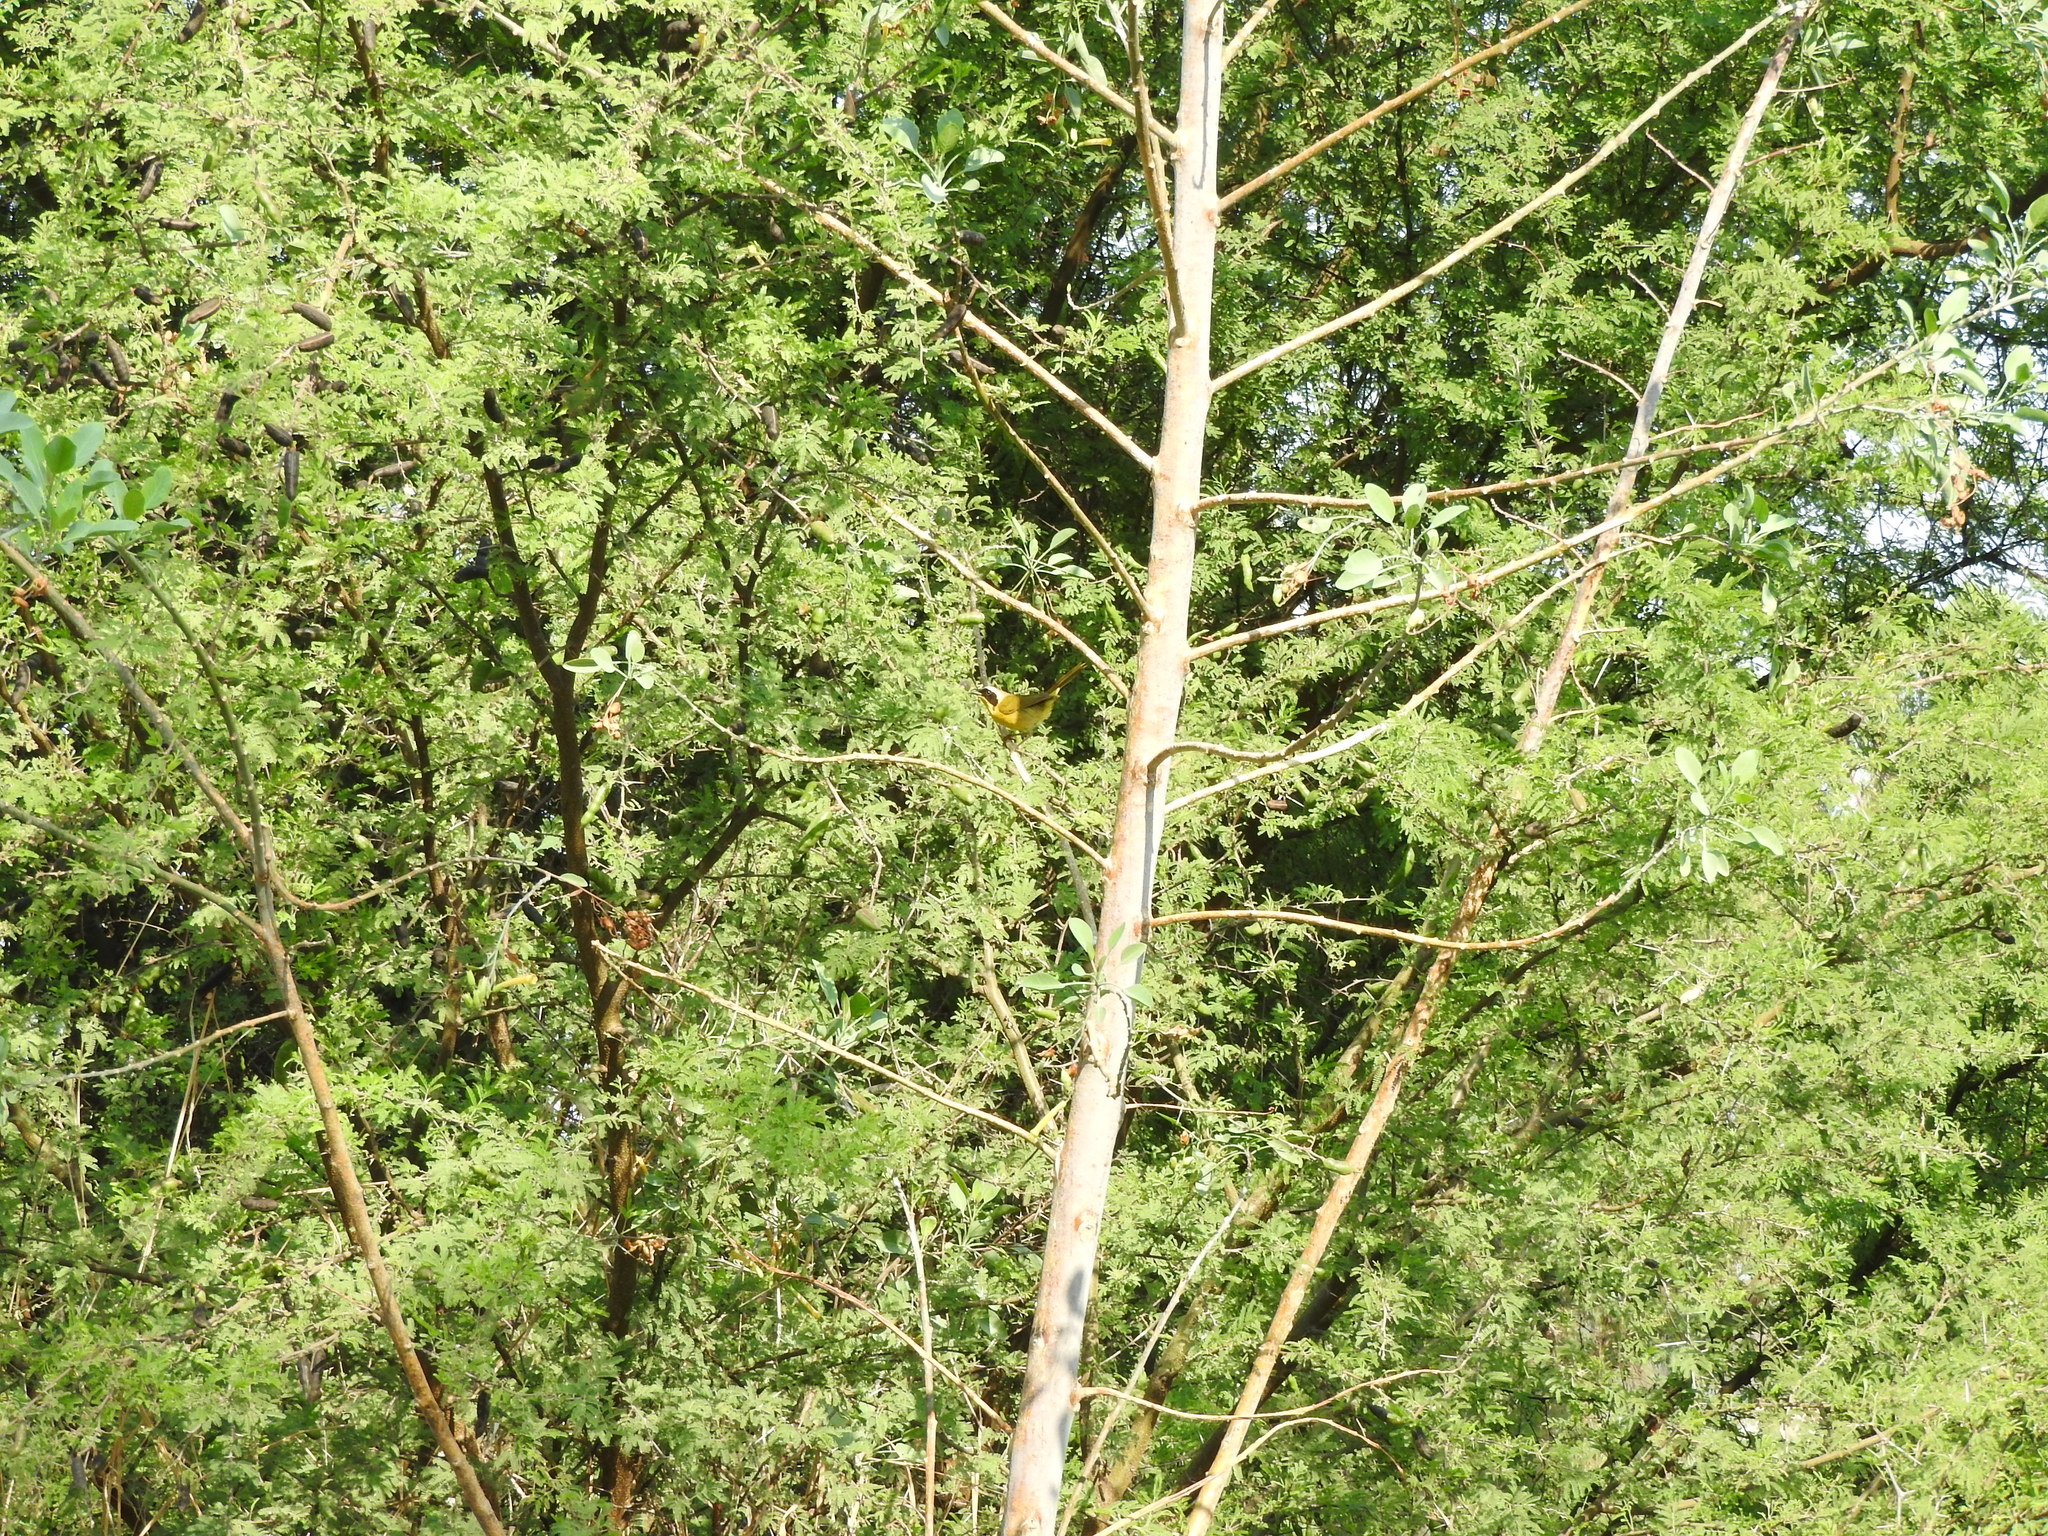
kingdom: Animalia
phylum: Chordata
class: Aves
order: Passeriformes
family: Parulidae
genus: Geothlypis
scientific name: Geothlypis trichas
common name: Common yellowthroat
